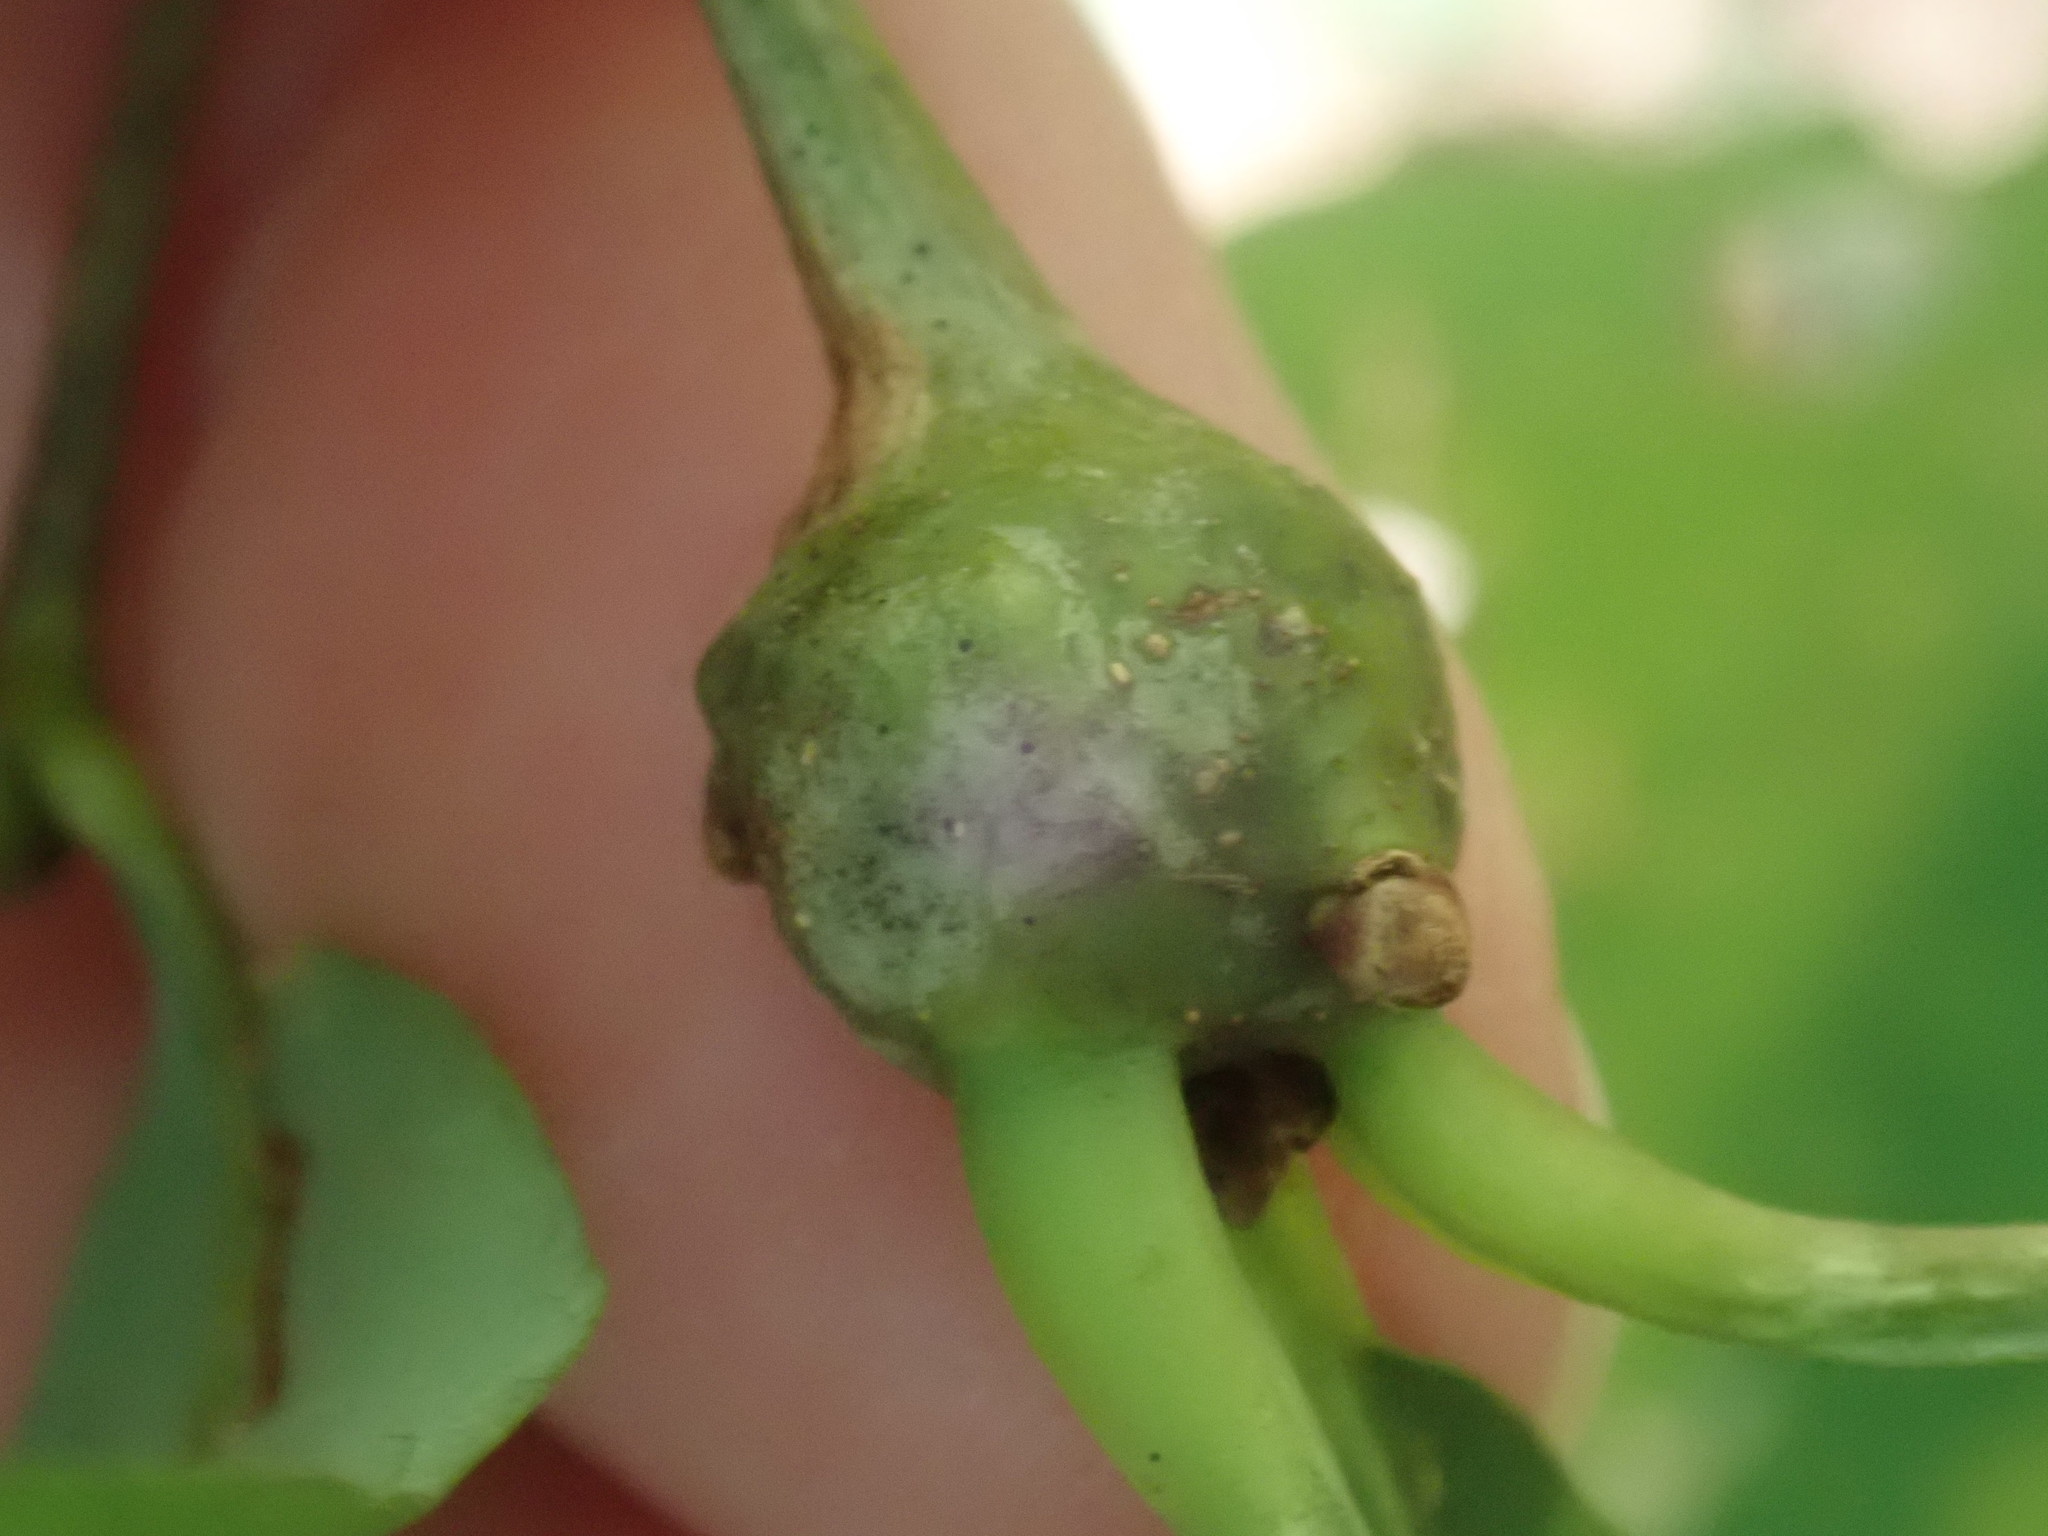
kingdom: Animalia
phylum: Arthropoda
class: Insecta
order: Hymenoptera
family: Cynipidae
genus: Callirhytis
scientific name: Callirhytis clavula
